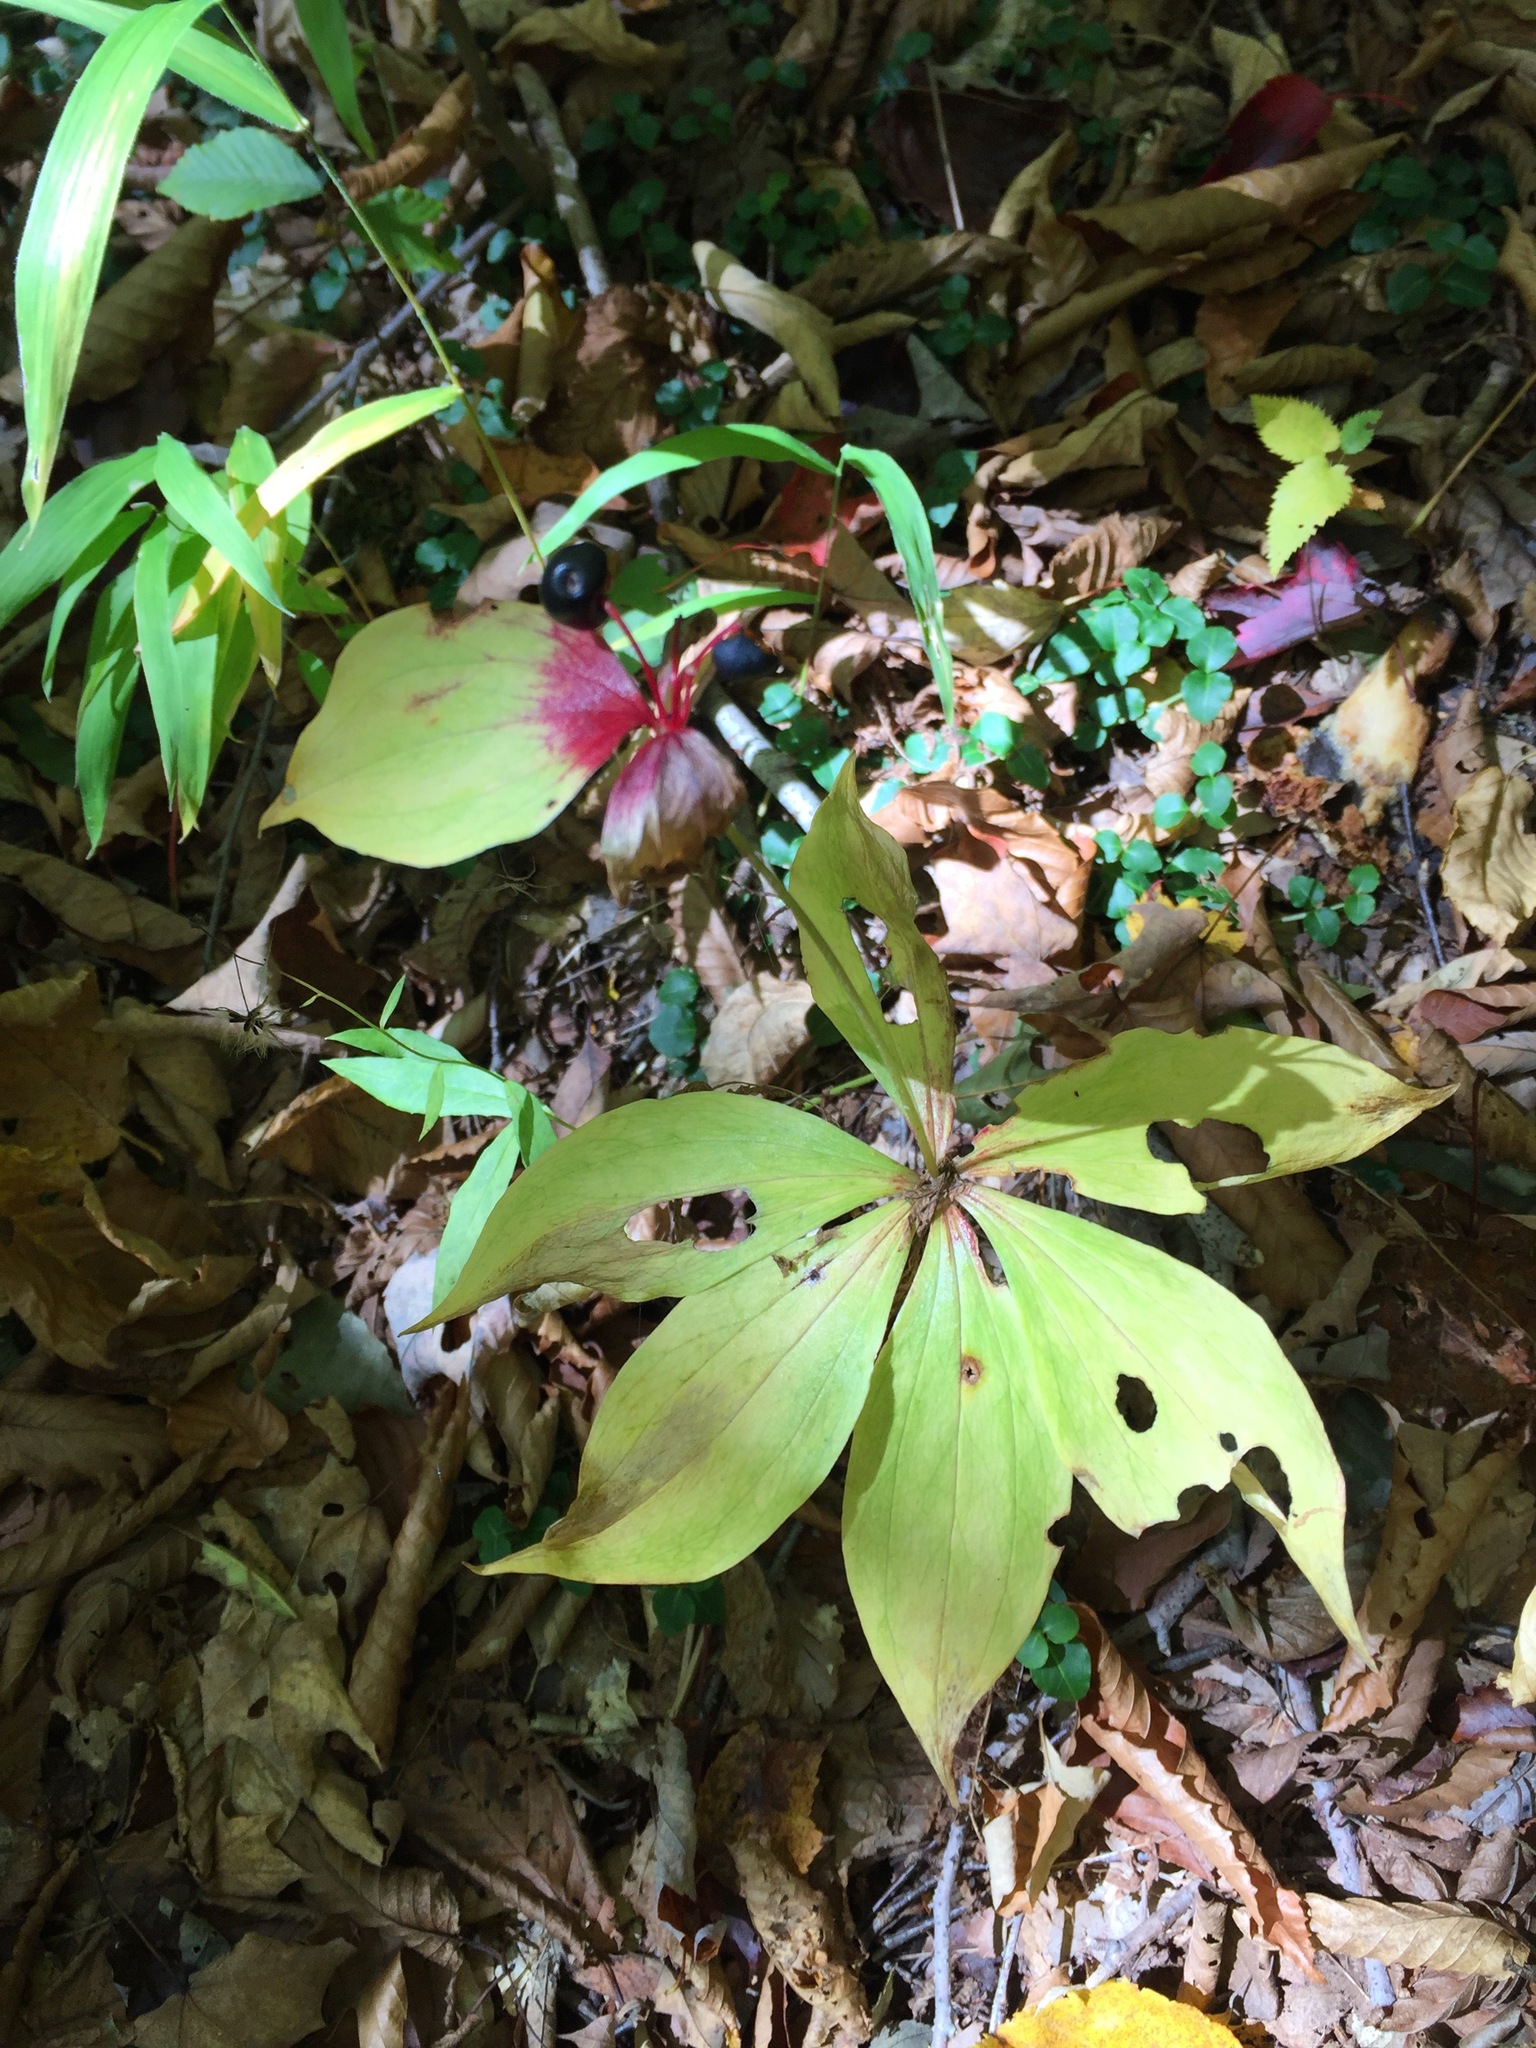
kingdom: Plantae
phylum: Tracheophyta
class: Liliopsida
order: Liliales
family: Liliaceae
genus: Medeola
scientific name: Medeola virginiana
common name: Indian cucumber-root
